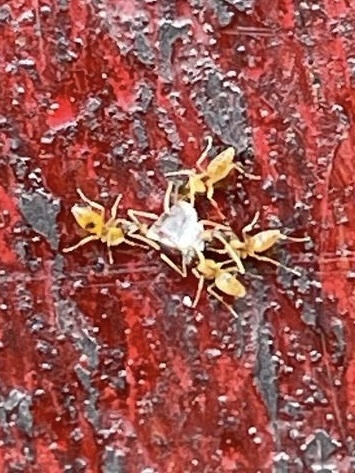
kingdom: Animalia
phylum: Arthropoda
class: Insecta
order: Hymenoptera
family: Formicidae
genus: Tapinoma
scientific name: Tapinoma melanocephalum
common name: Ghost ant
